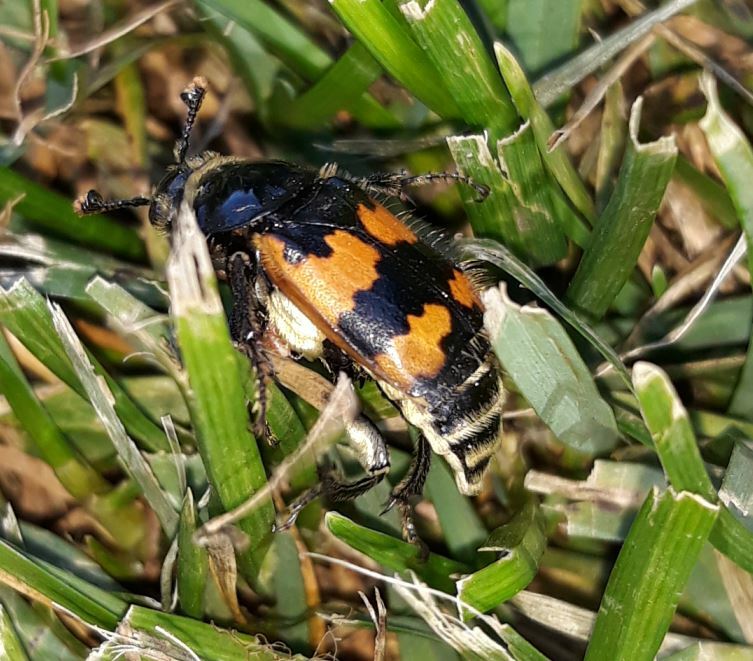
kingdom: Animalia
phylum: Arthropoda
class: Insecta
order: Coleoptera
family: Staphylinidae
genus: Nicrophorus
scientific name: Nicrophorus vespillo
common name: Common burying beetle
